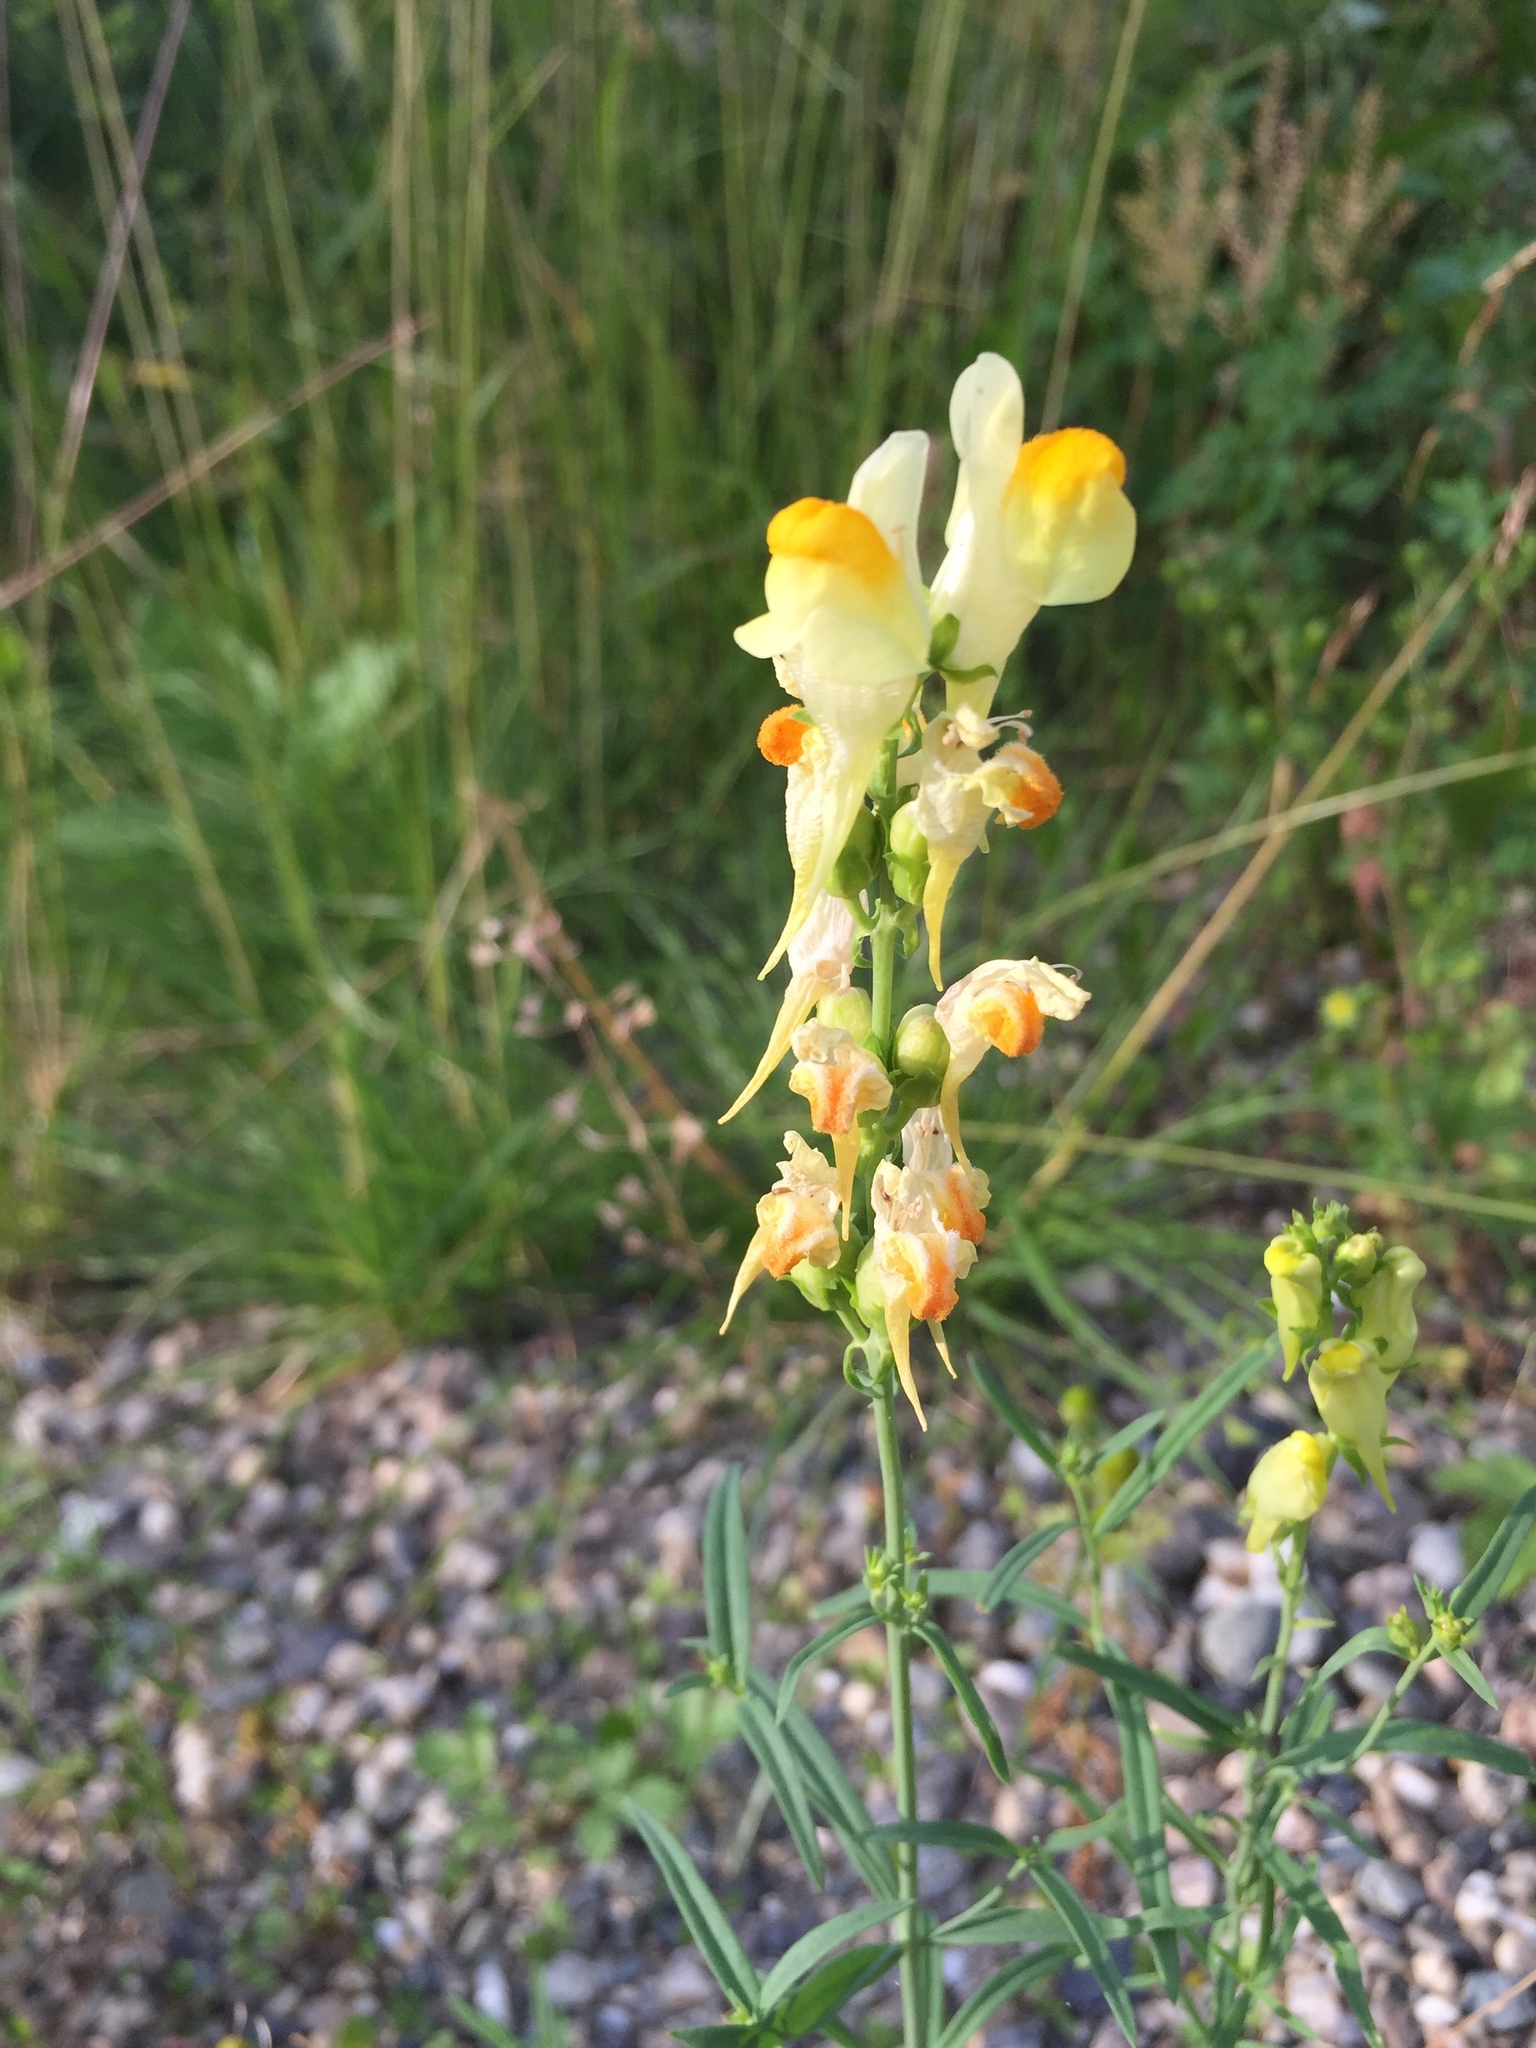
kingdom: Plantae
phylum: Tracheophyta
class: Magnoliopsida
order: Lamiales
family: Plantaginaceae
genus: Linaria
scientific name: Linaria vulgaris
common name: Butter and eggs
